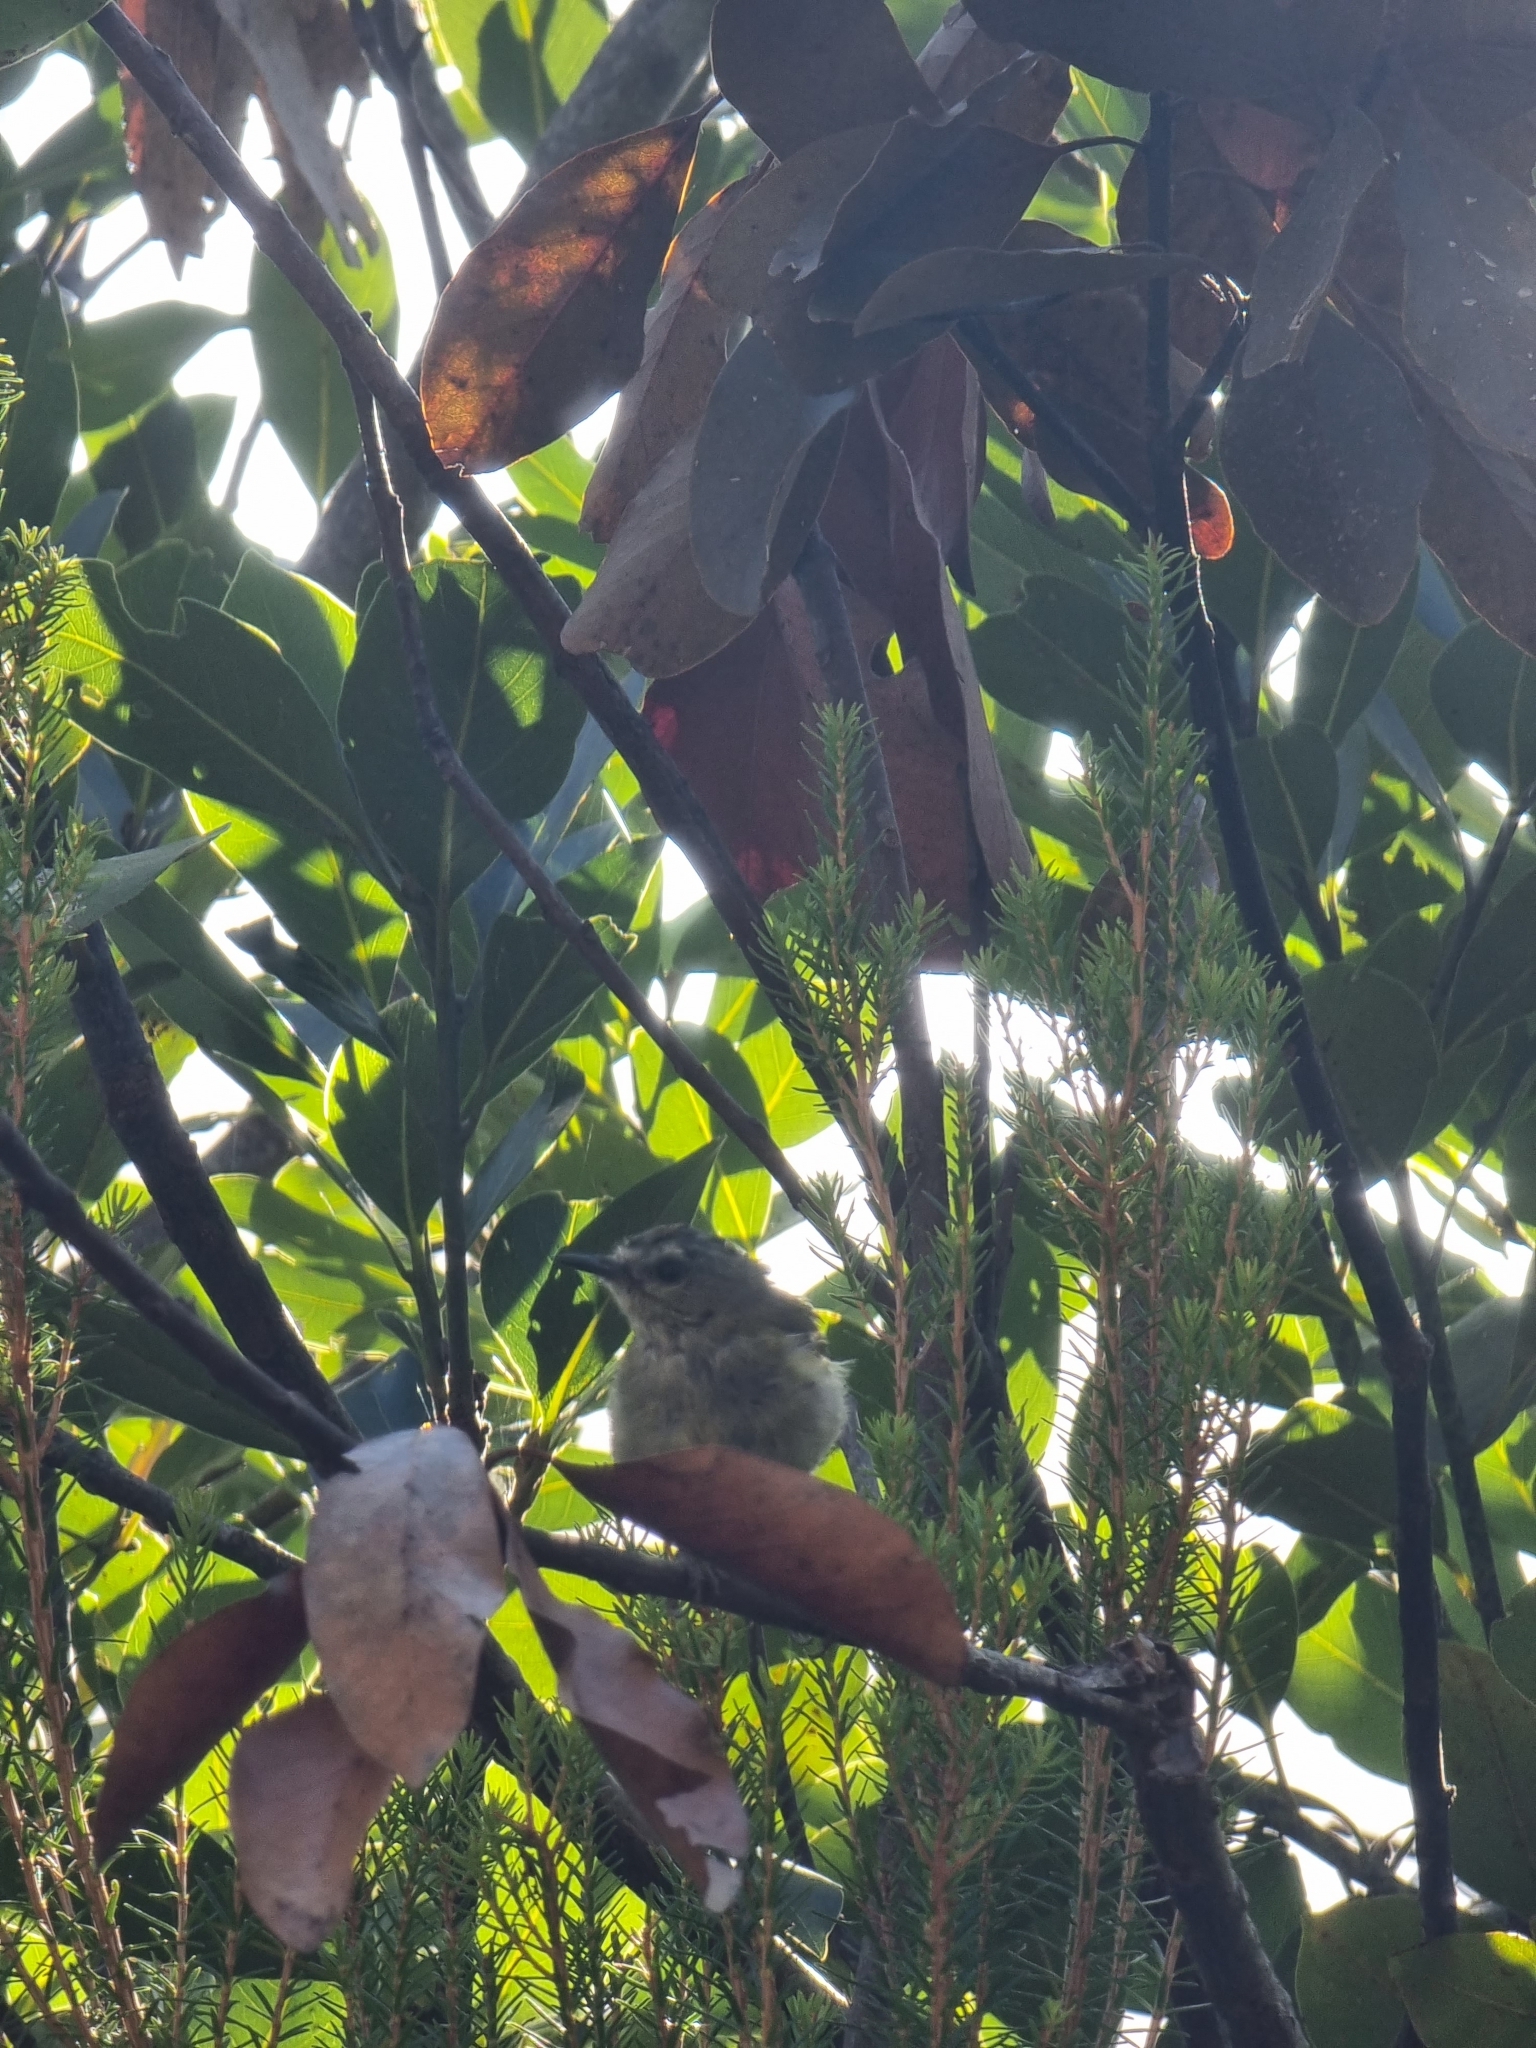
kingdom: Animalia
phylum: Chordata
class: Aves
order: Passeriformes
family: Regulidae
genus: Regulus
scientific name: Regulus madeirensis
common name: Madeira firecrest
